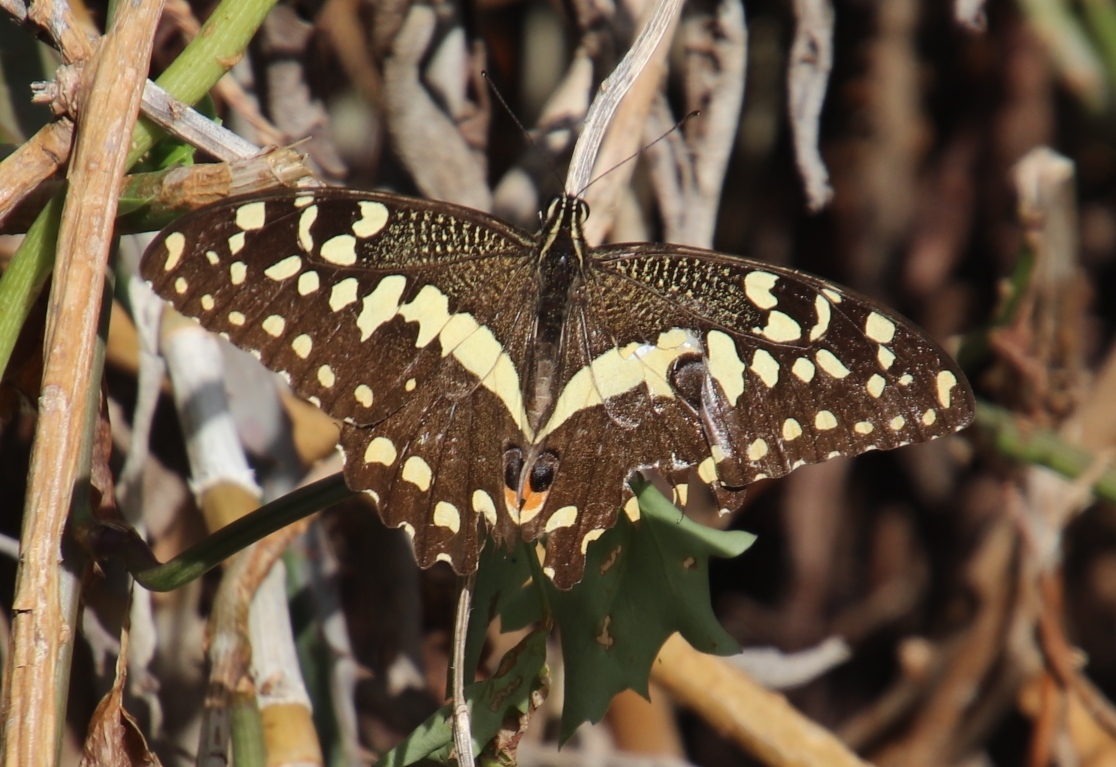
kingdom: Animalia
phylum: Arthropoda
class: Insecta
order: Lepidoptera
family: Papilionidae
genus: Papilio
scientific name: Papilio demodocus
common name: Christmas butterfly
